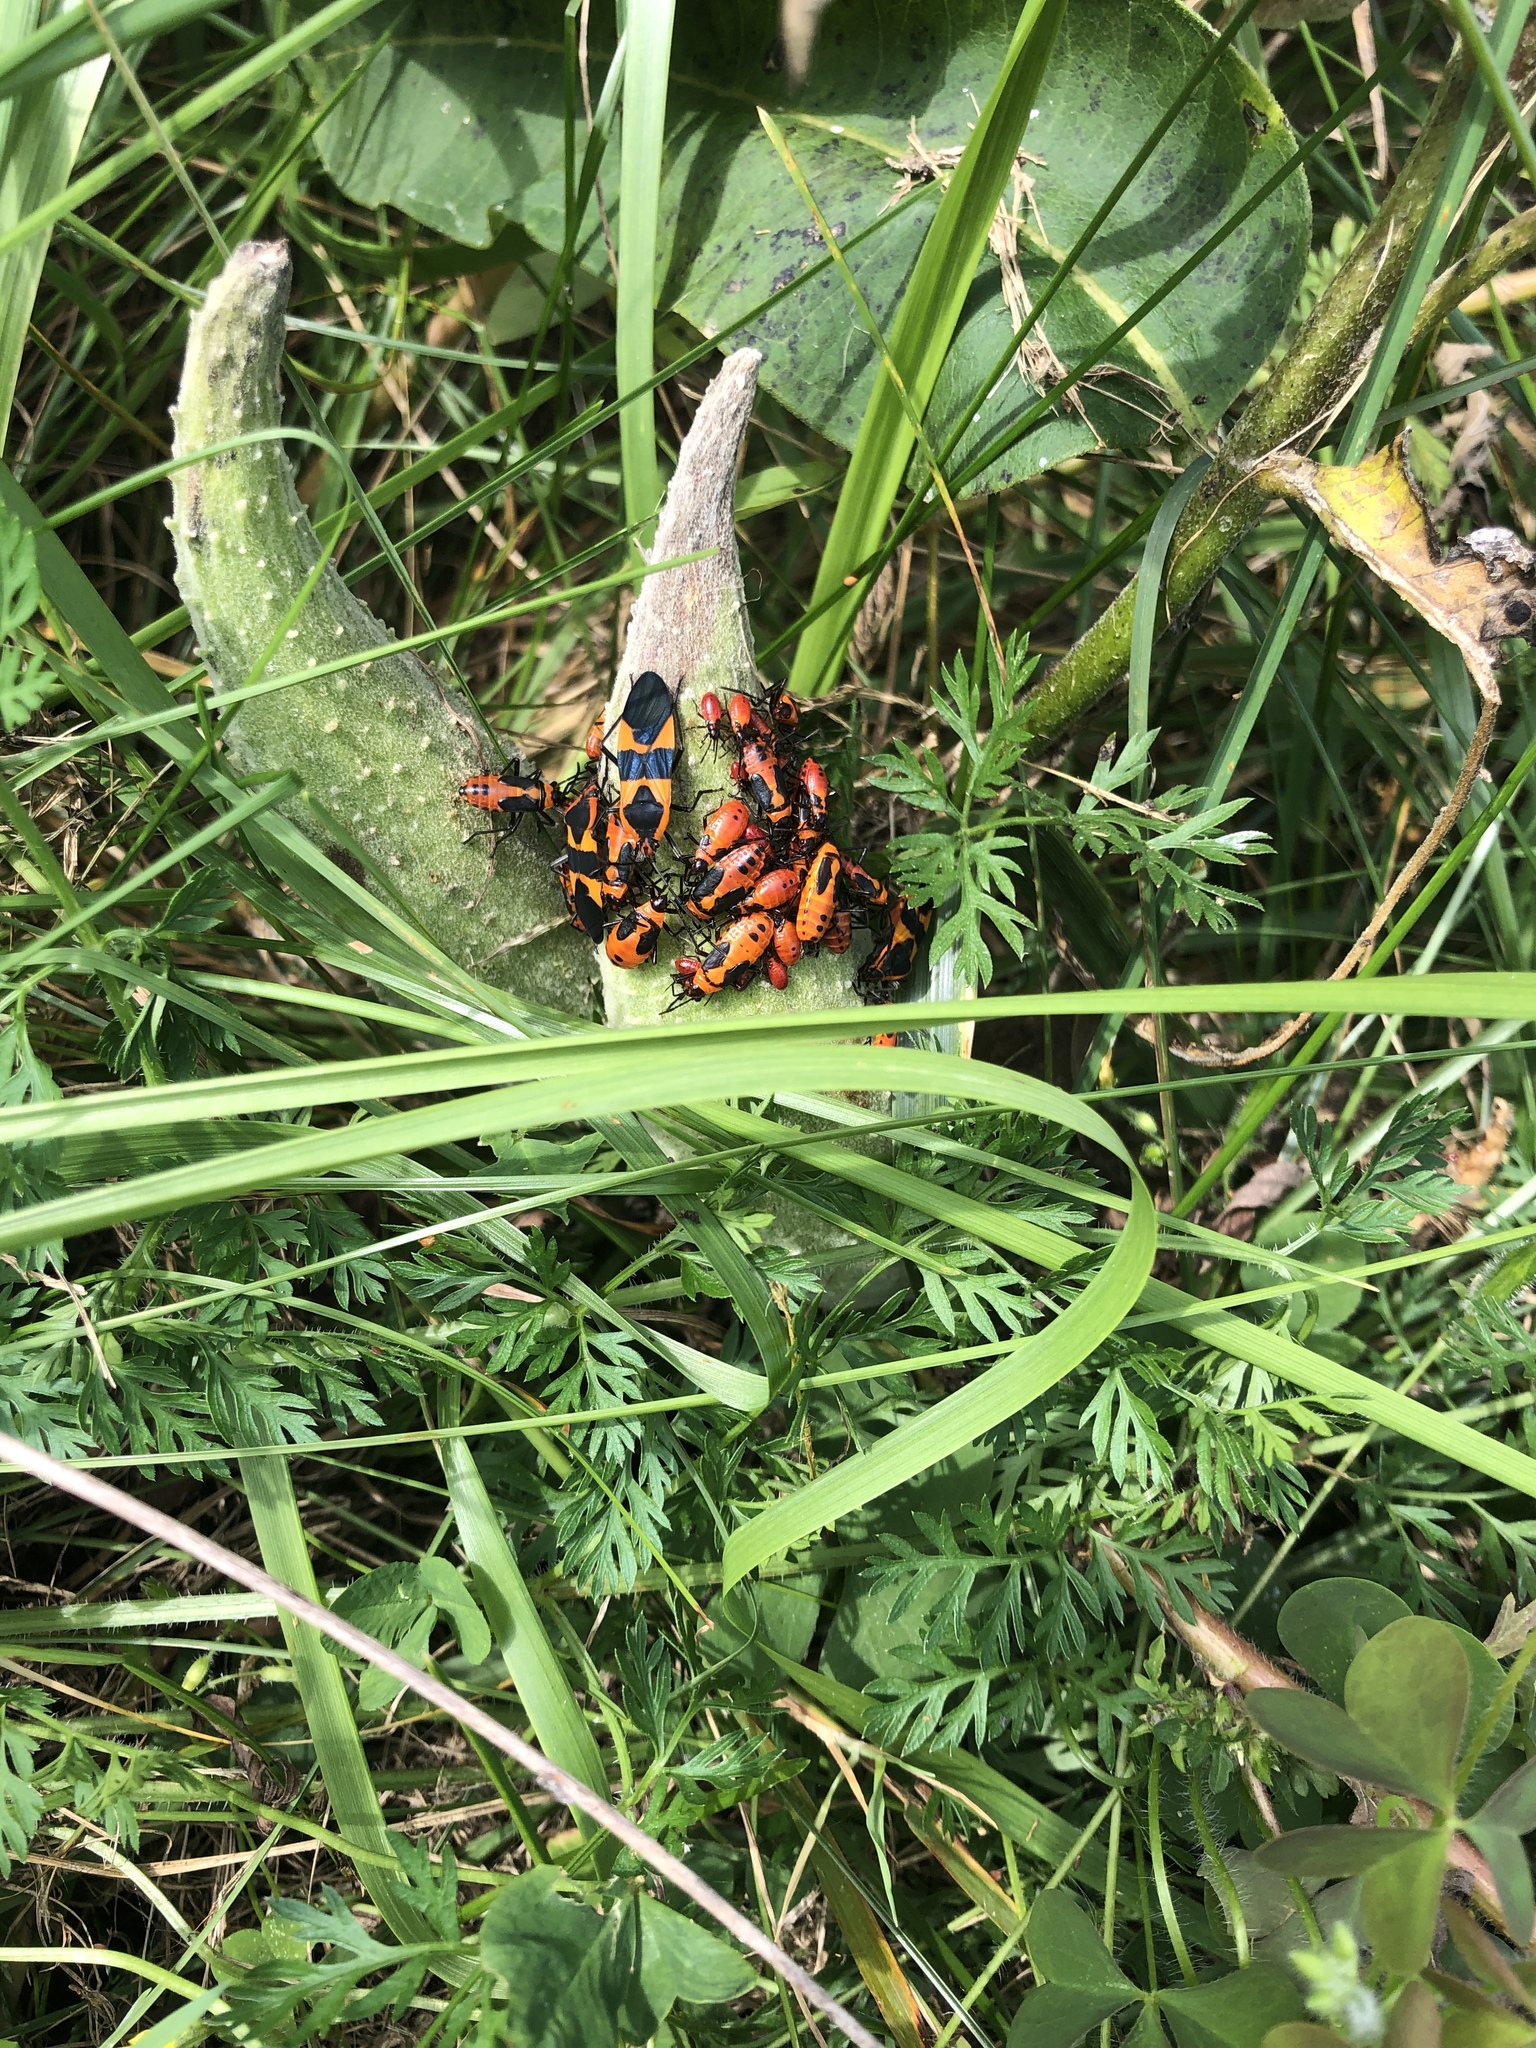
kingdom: Animalia
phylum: Arthropoda
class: Insecta
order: Hemiptera
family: Lygaeidae
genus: Oncopeltus
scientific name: Oncopeltus fasciatus
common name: Large milkweed bug
